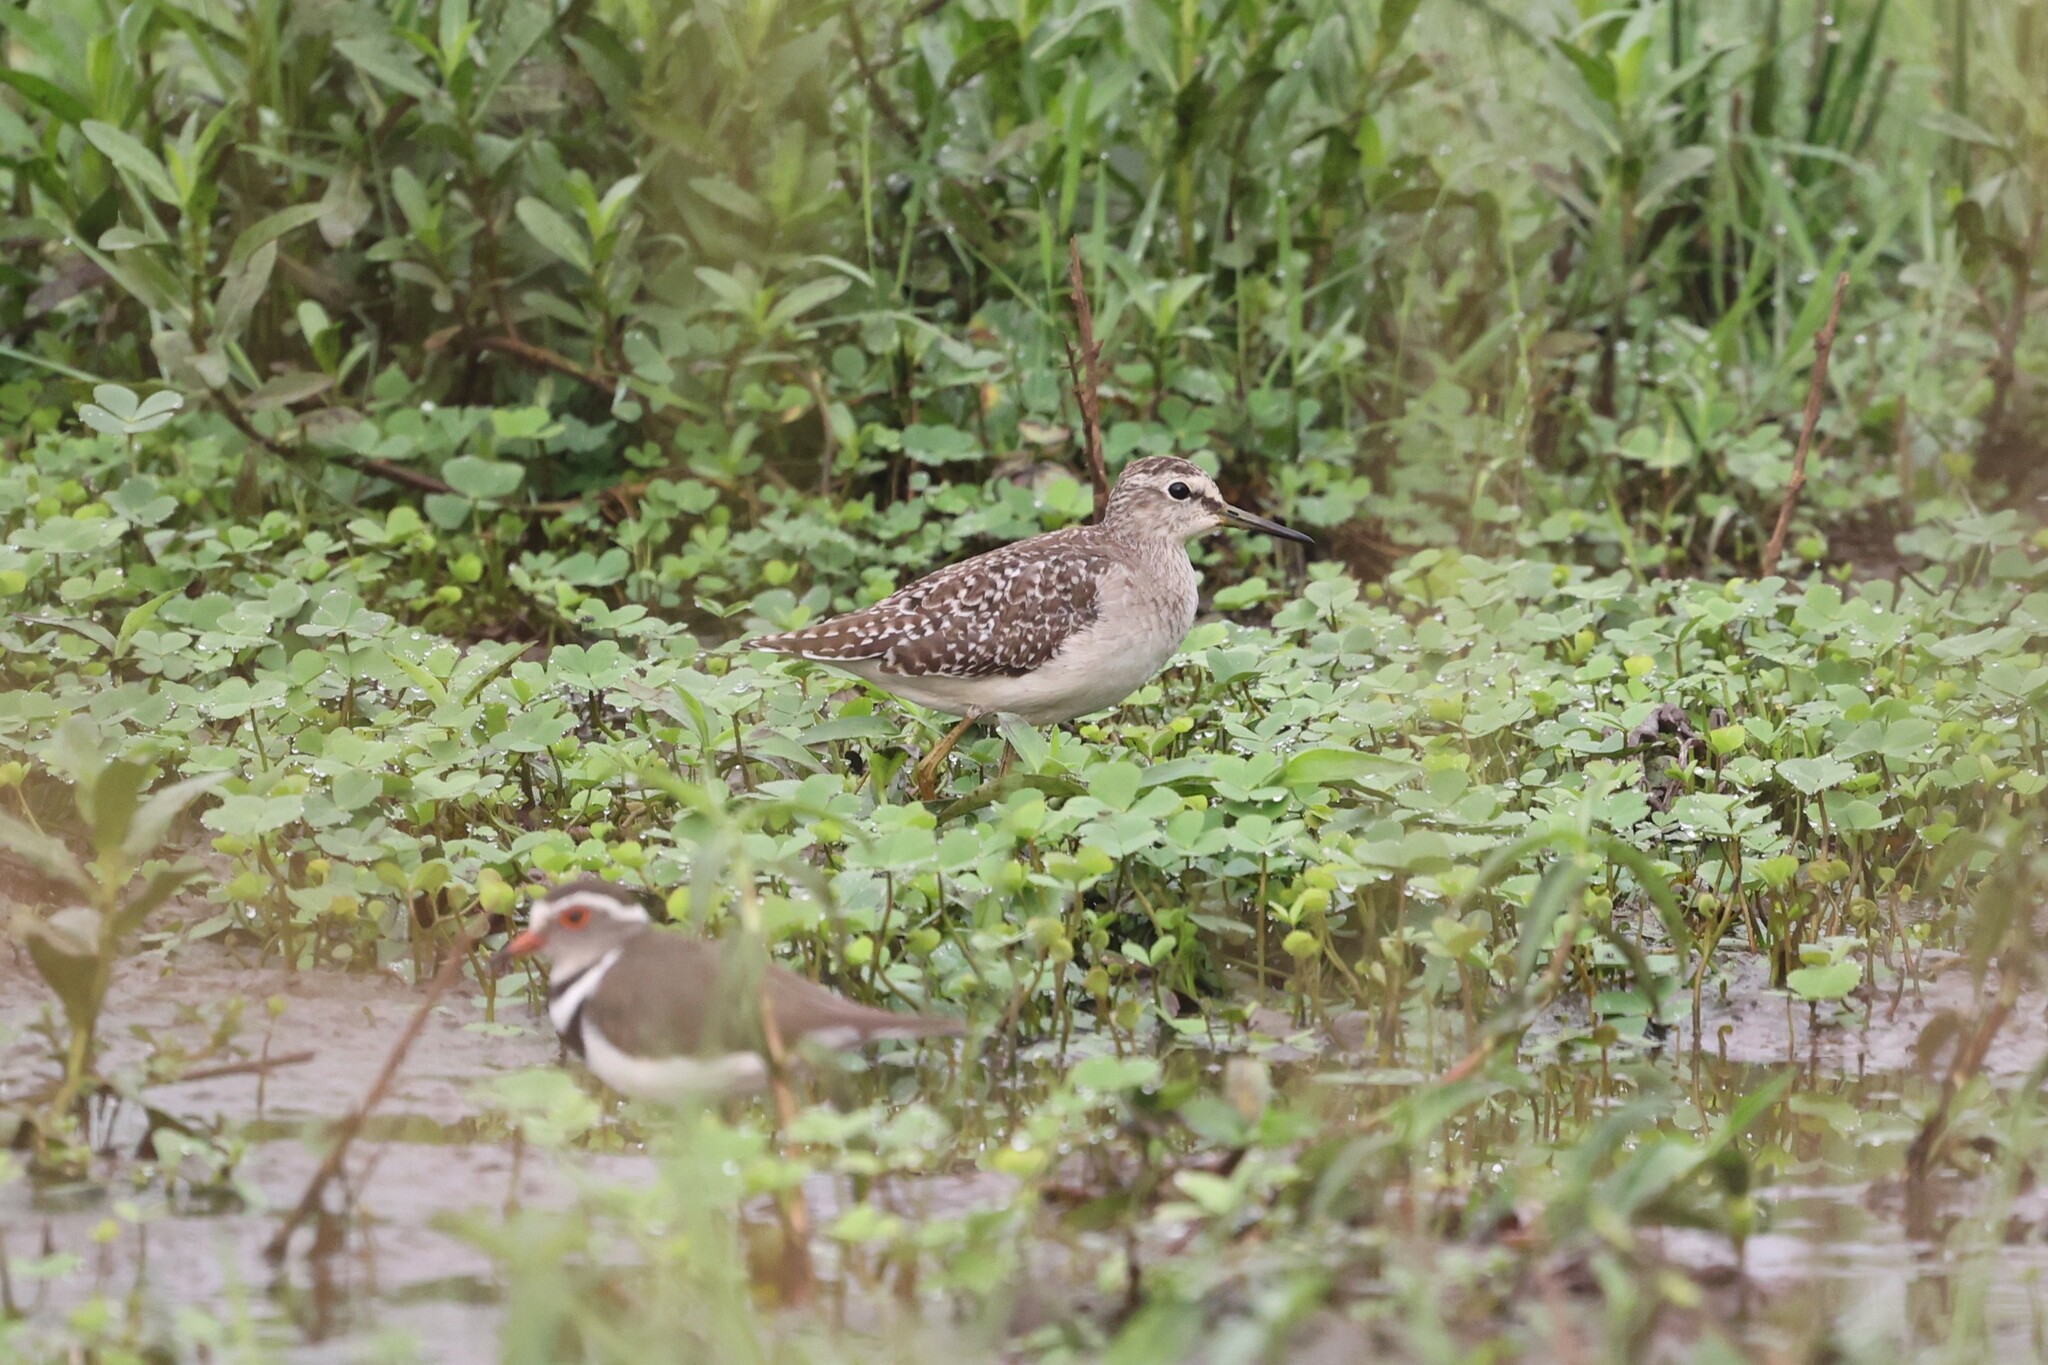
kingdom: Animalia
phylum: Chordata
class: Aves
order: Charadriiformes
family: Scolopacidae
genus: Tringa
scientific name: Tringa glareola
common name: Wood sandpiper
